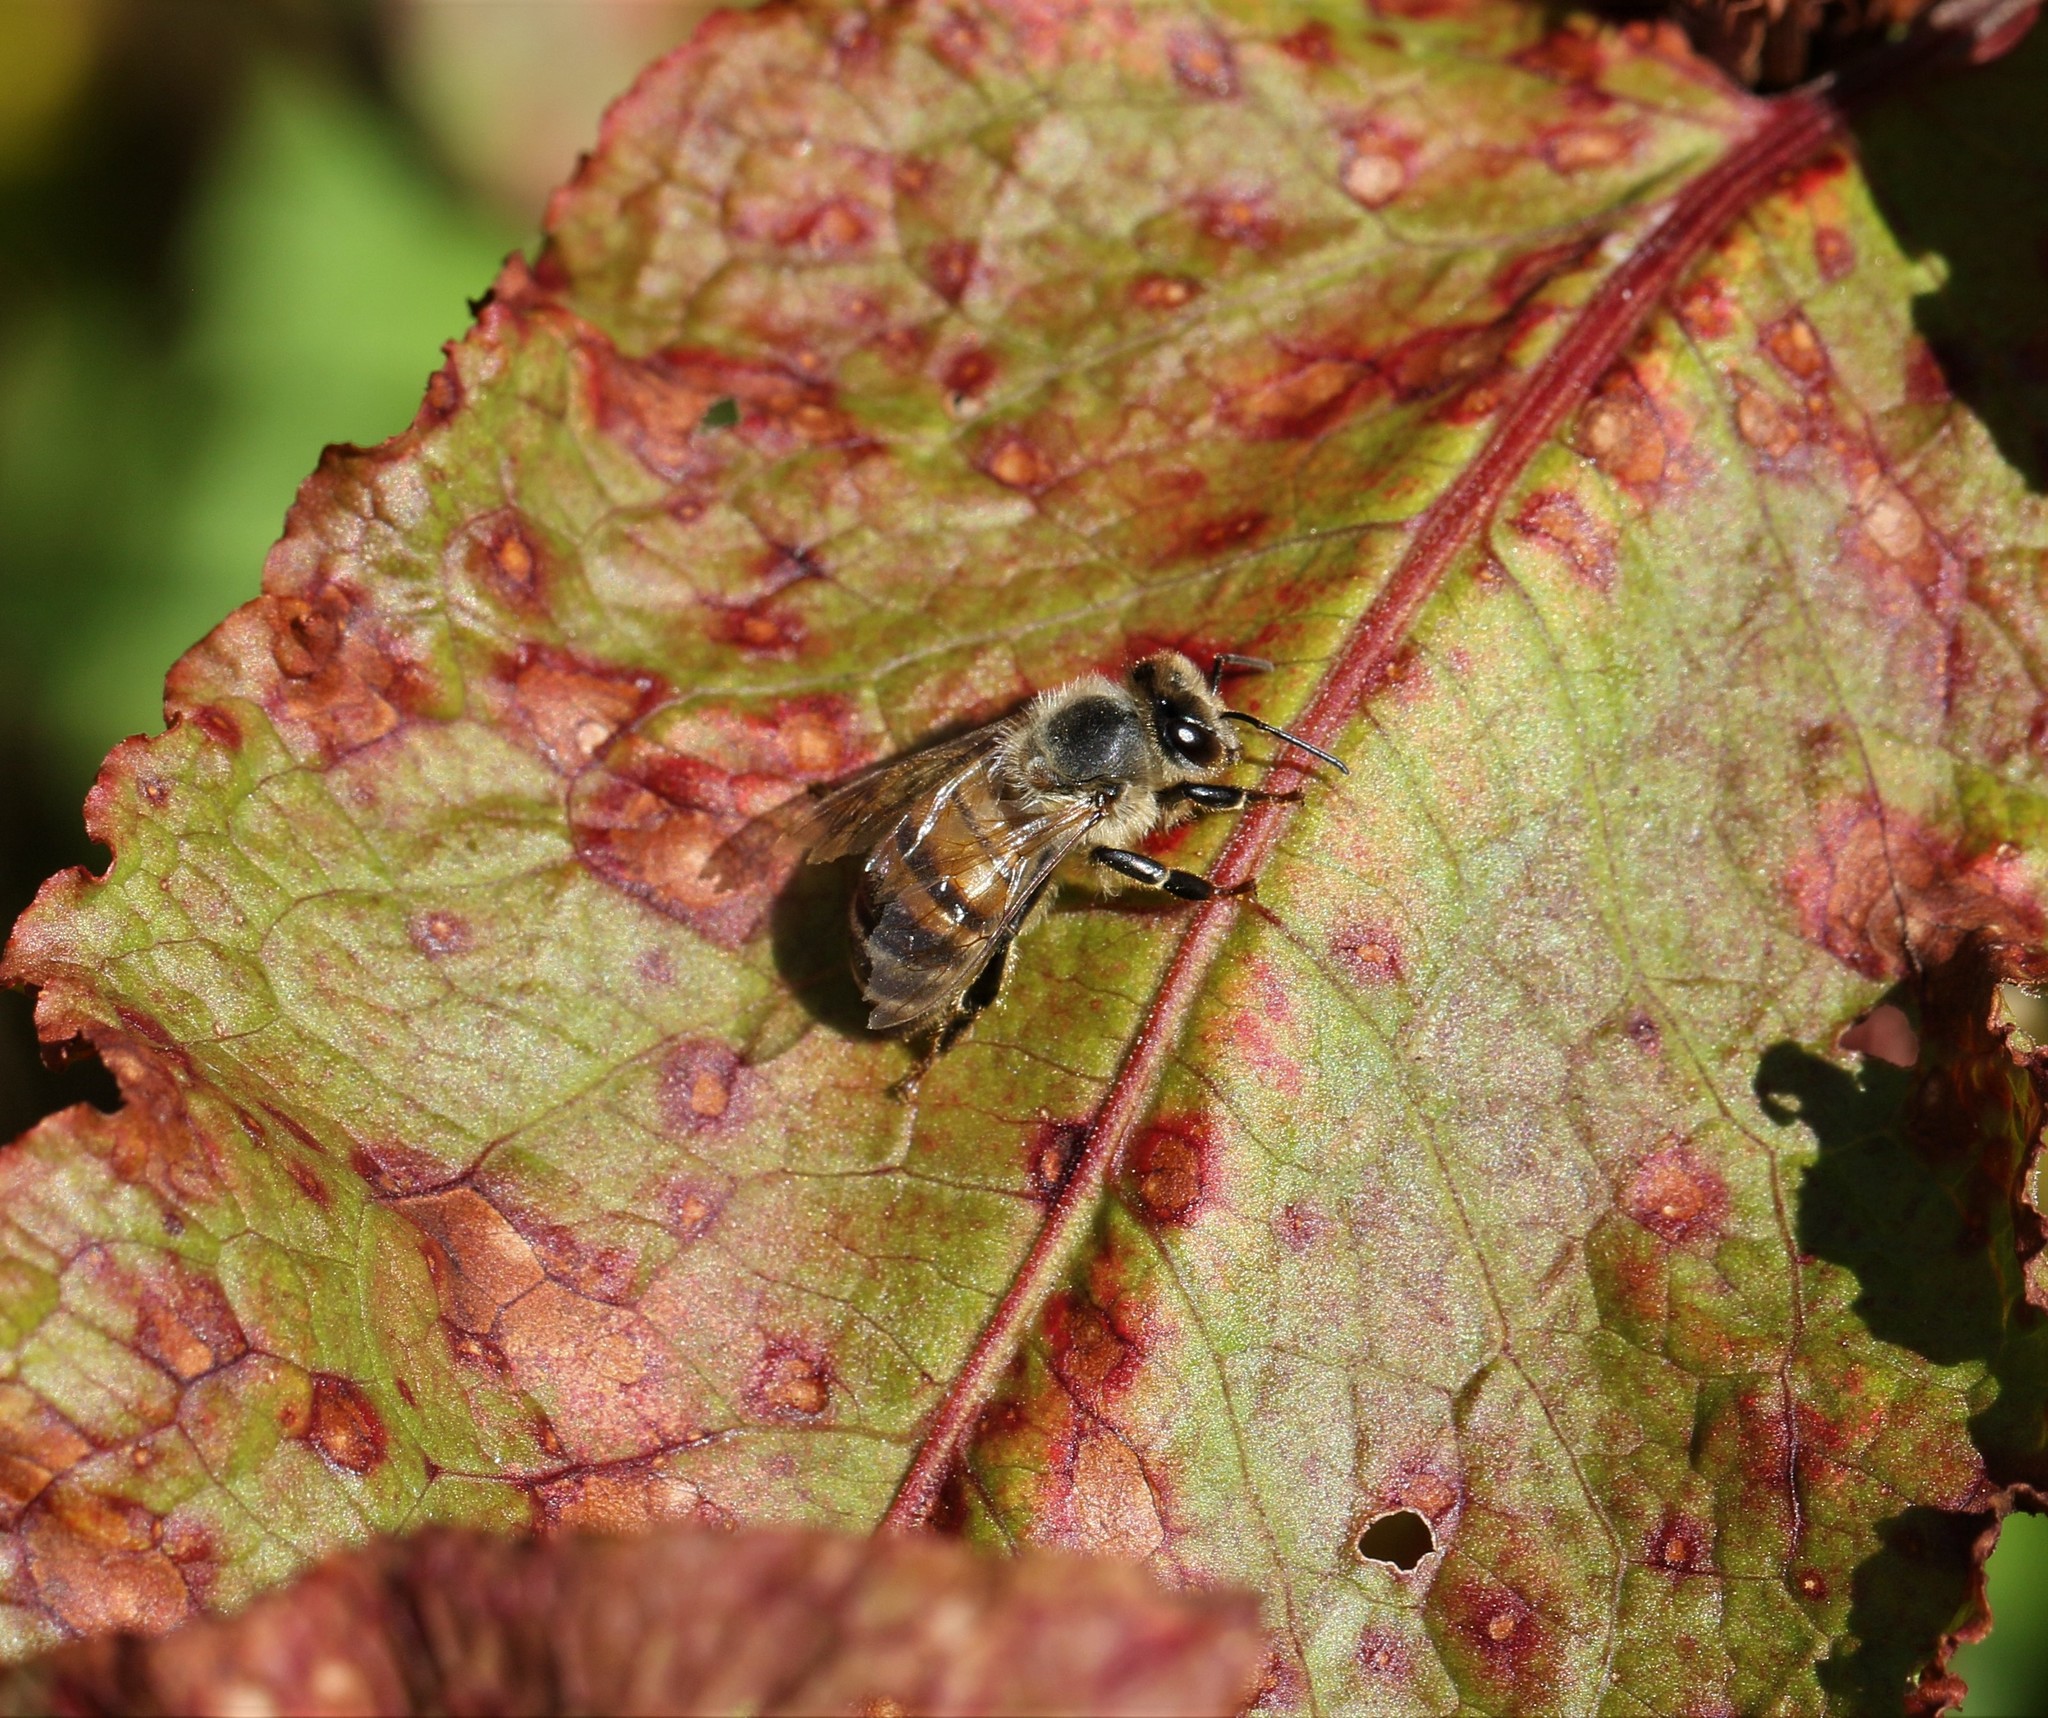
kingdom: Animalia
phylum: Arthropoda
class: Insecta
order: Hymenoptera
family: Apidae
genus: Apis
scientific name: Apis mellifera
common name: Honey bee
